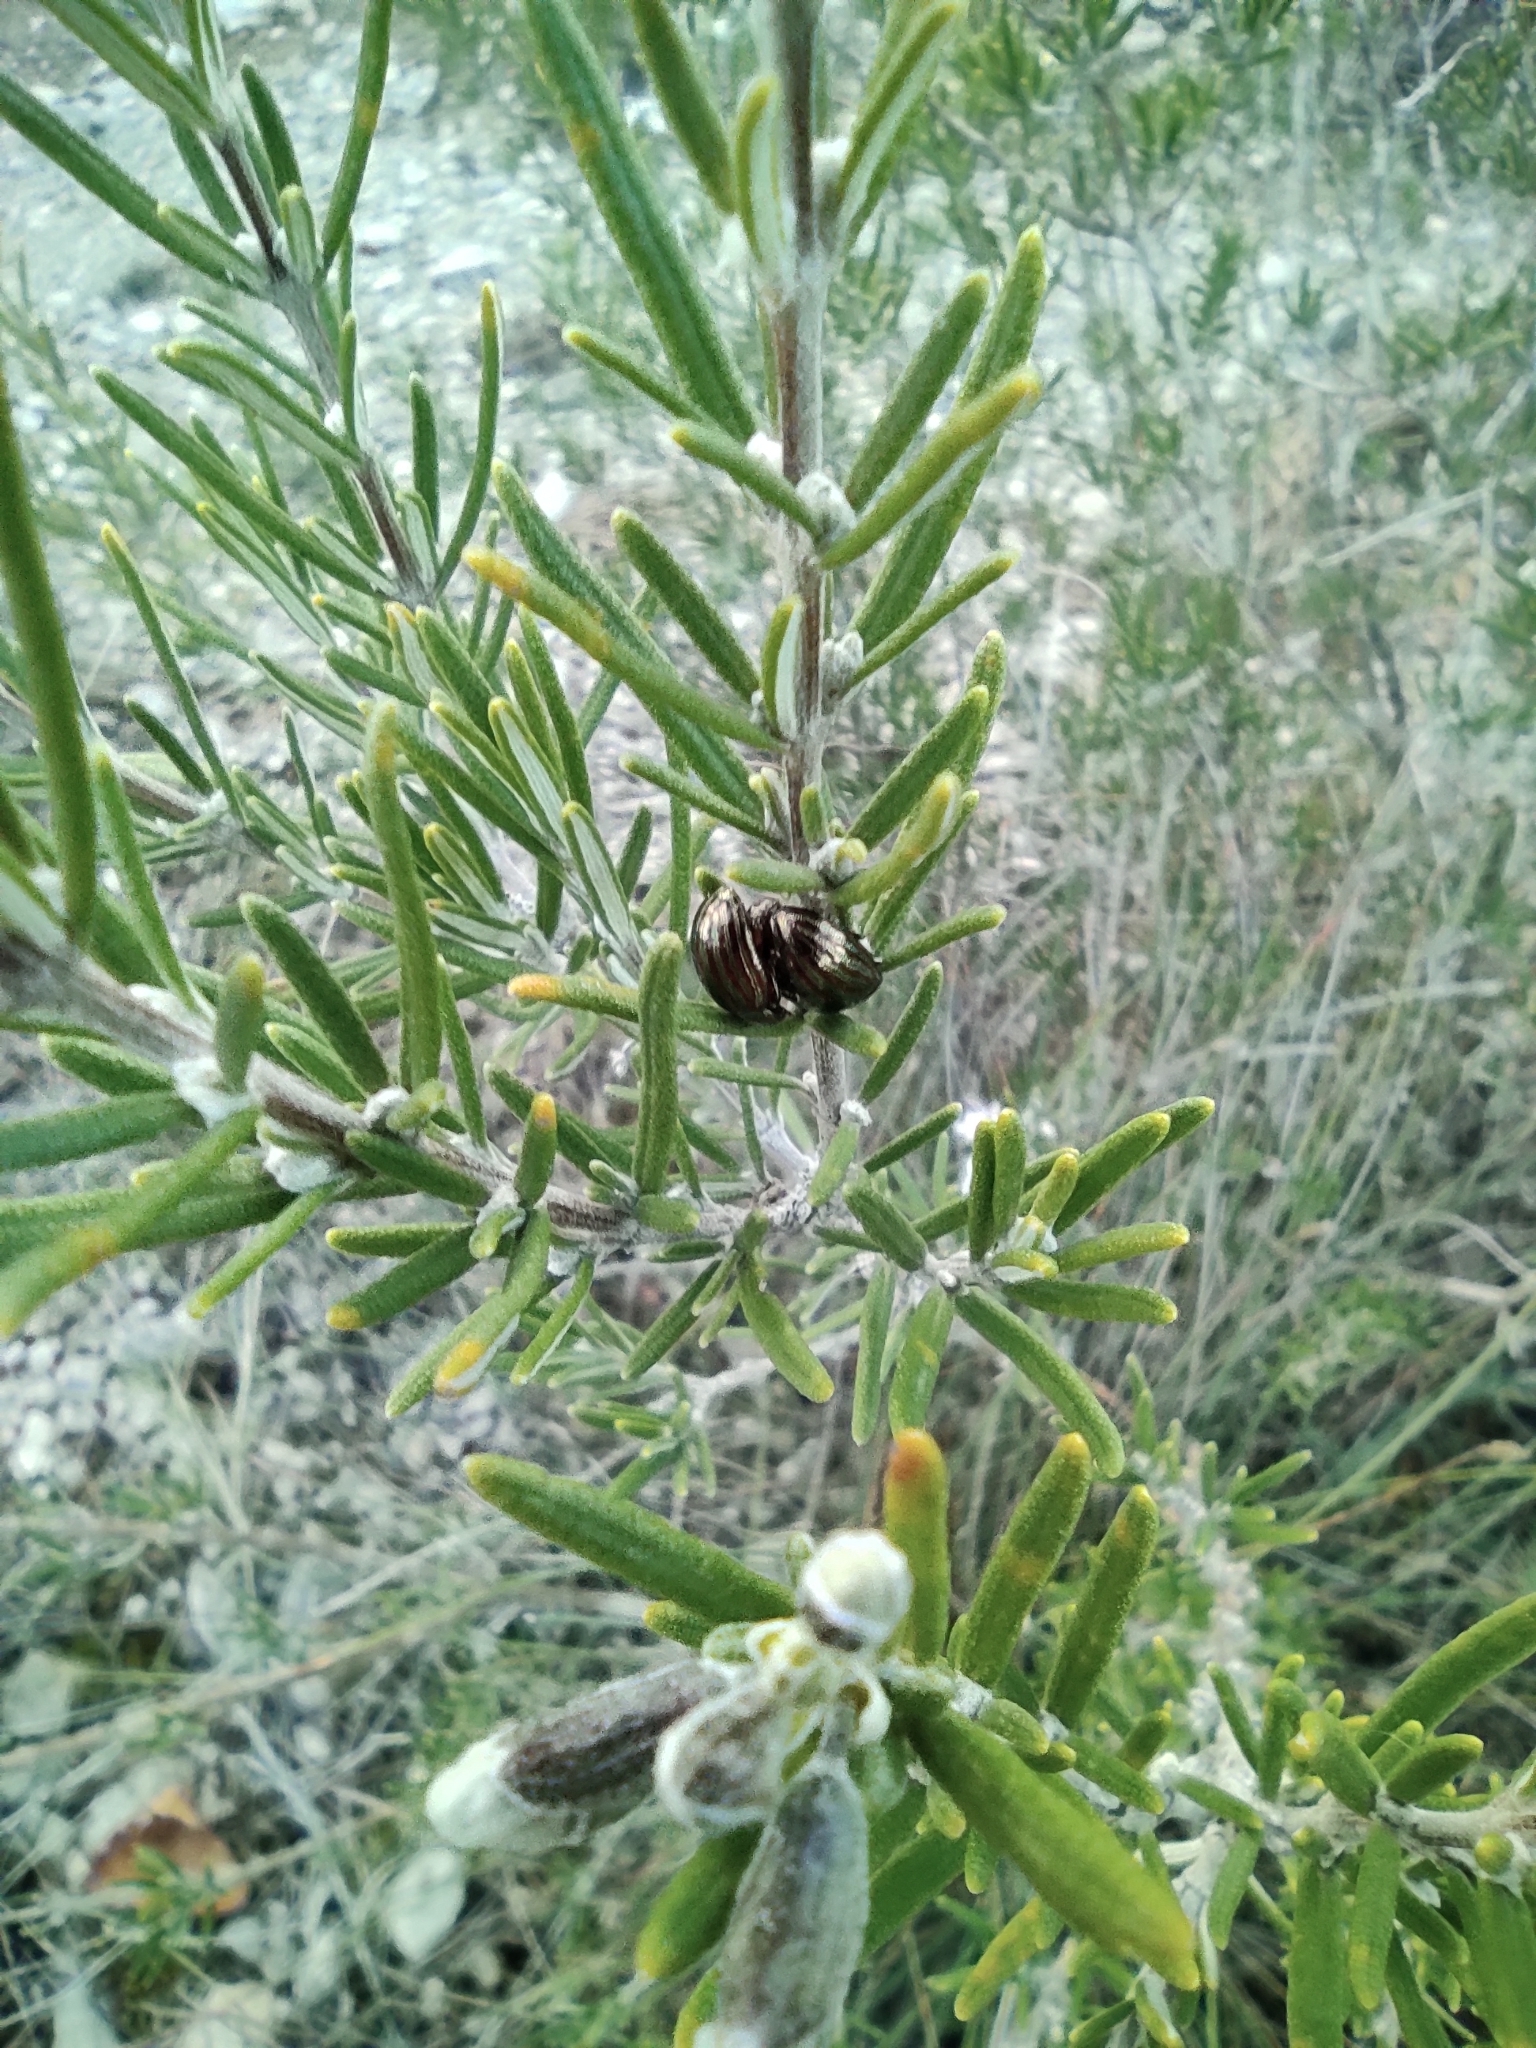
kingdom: Animalia
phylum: Arthropoda
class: Insecta
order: Coleoptera
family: Chrysomelidae
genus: Chrysolina
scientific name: Chrysolina americana
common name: Rosemary beetle
